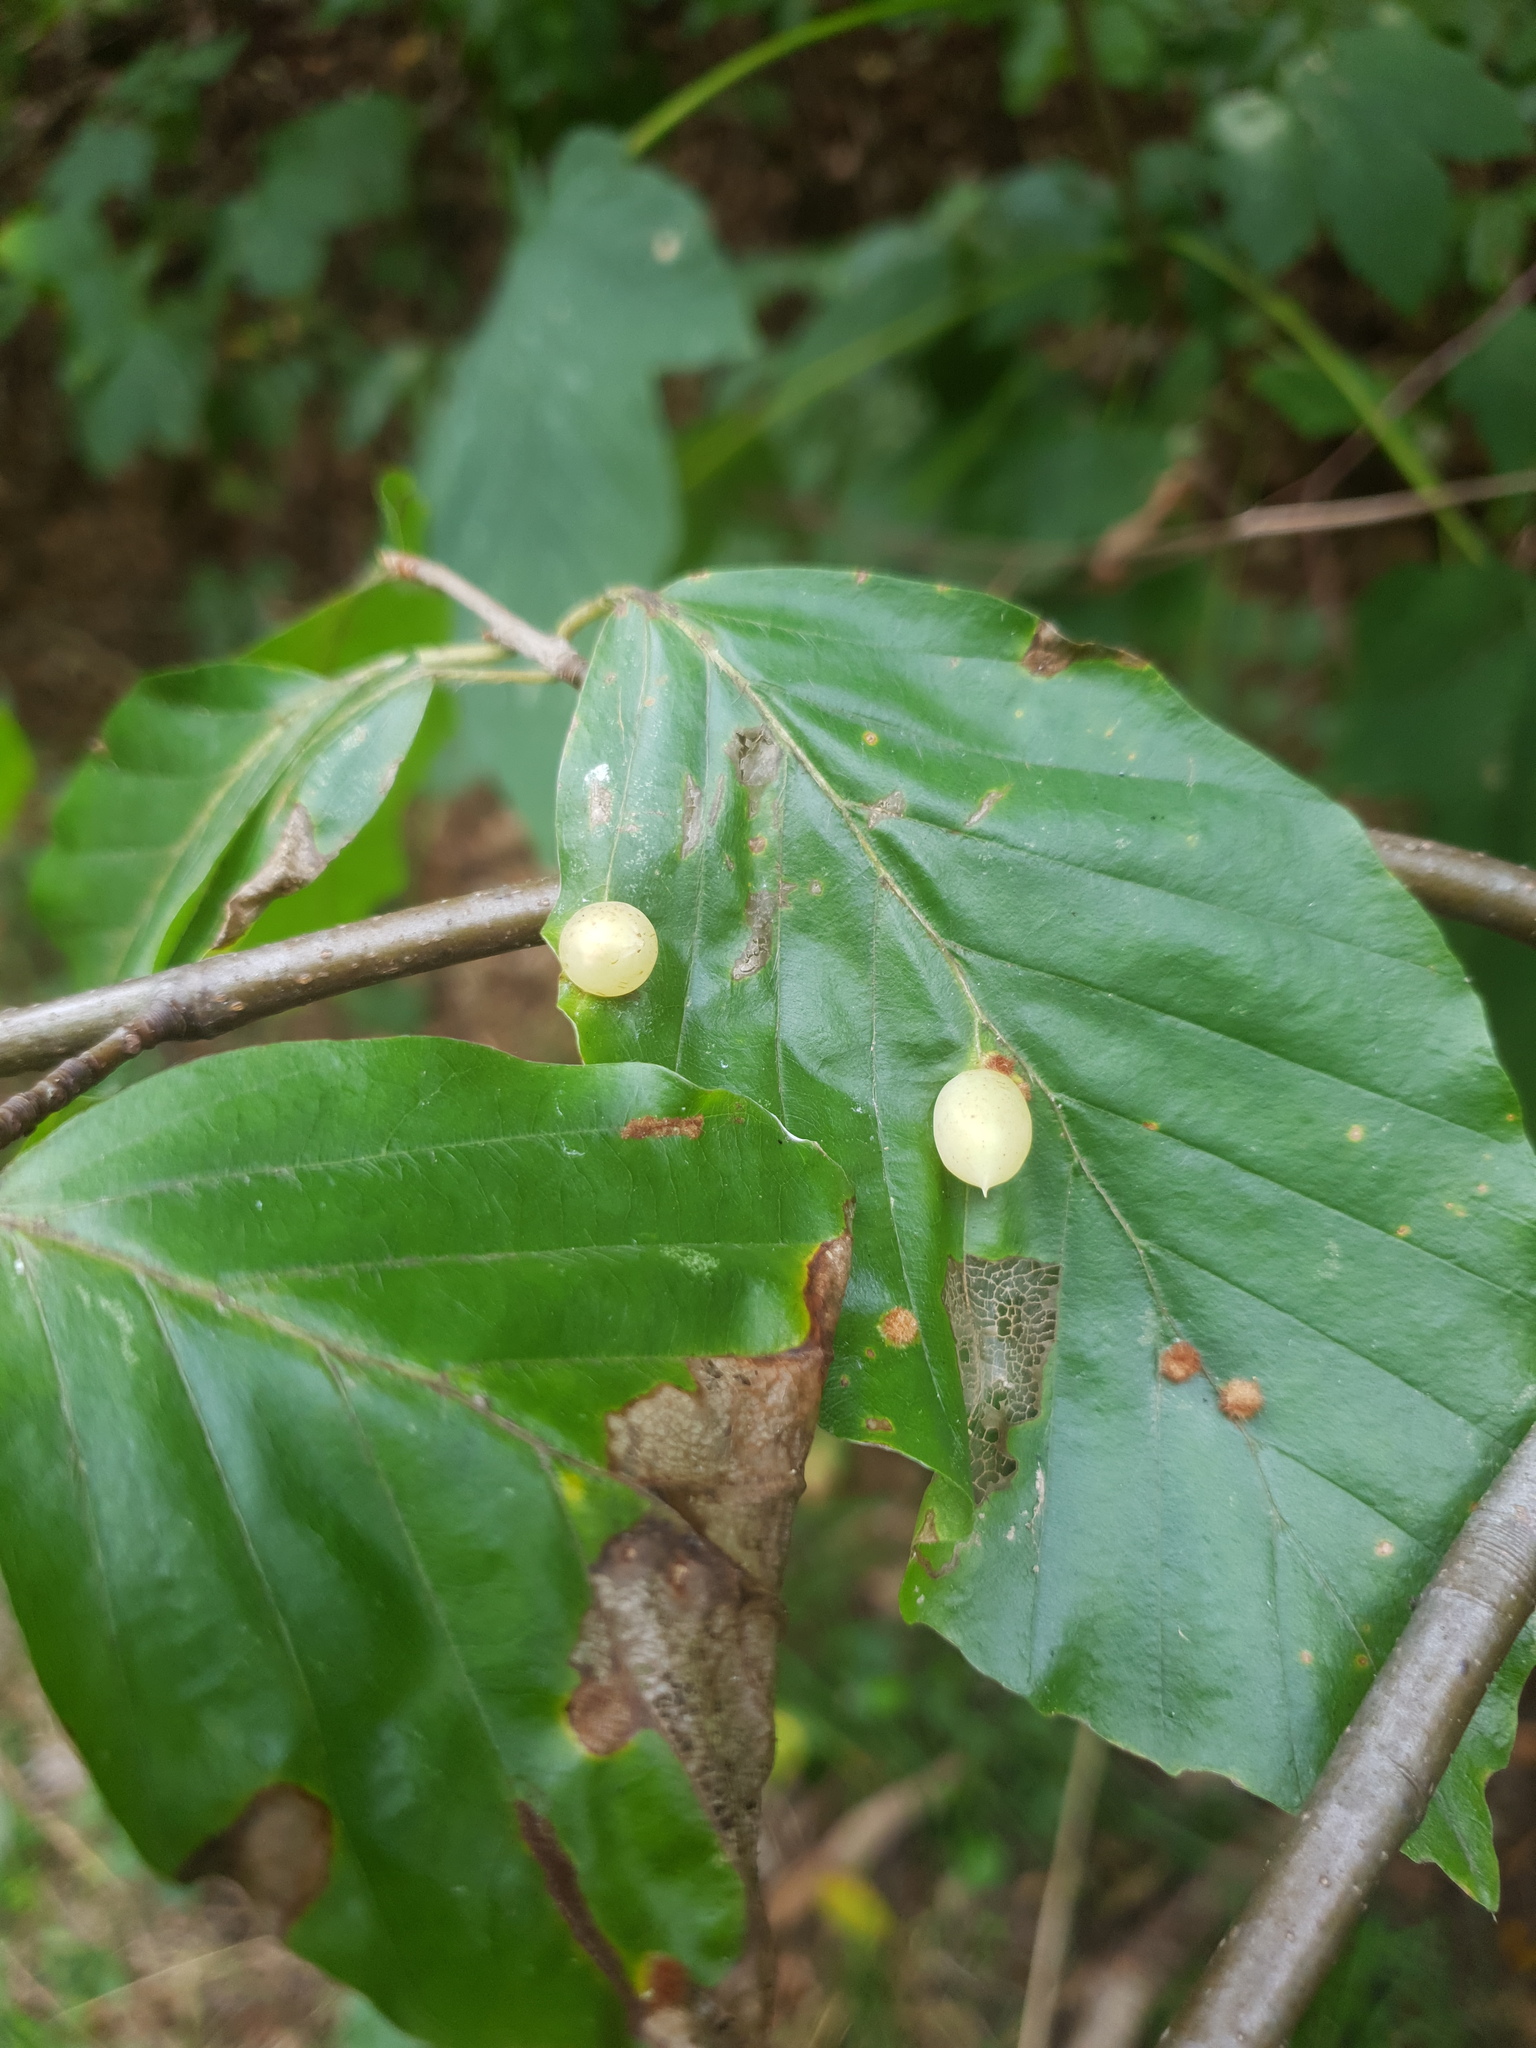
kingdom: Animalia
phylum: Arthropoda
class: Insecta
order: Diptera
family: Cecidomyiidae
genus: Mikiola
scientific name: Mikiola fagi
